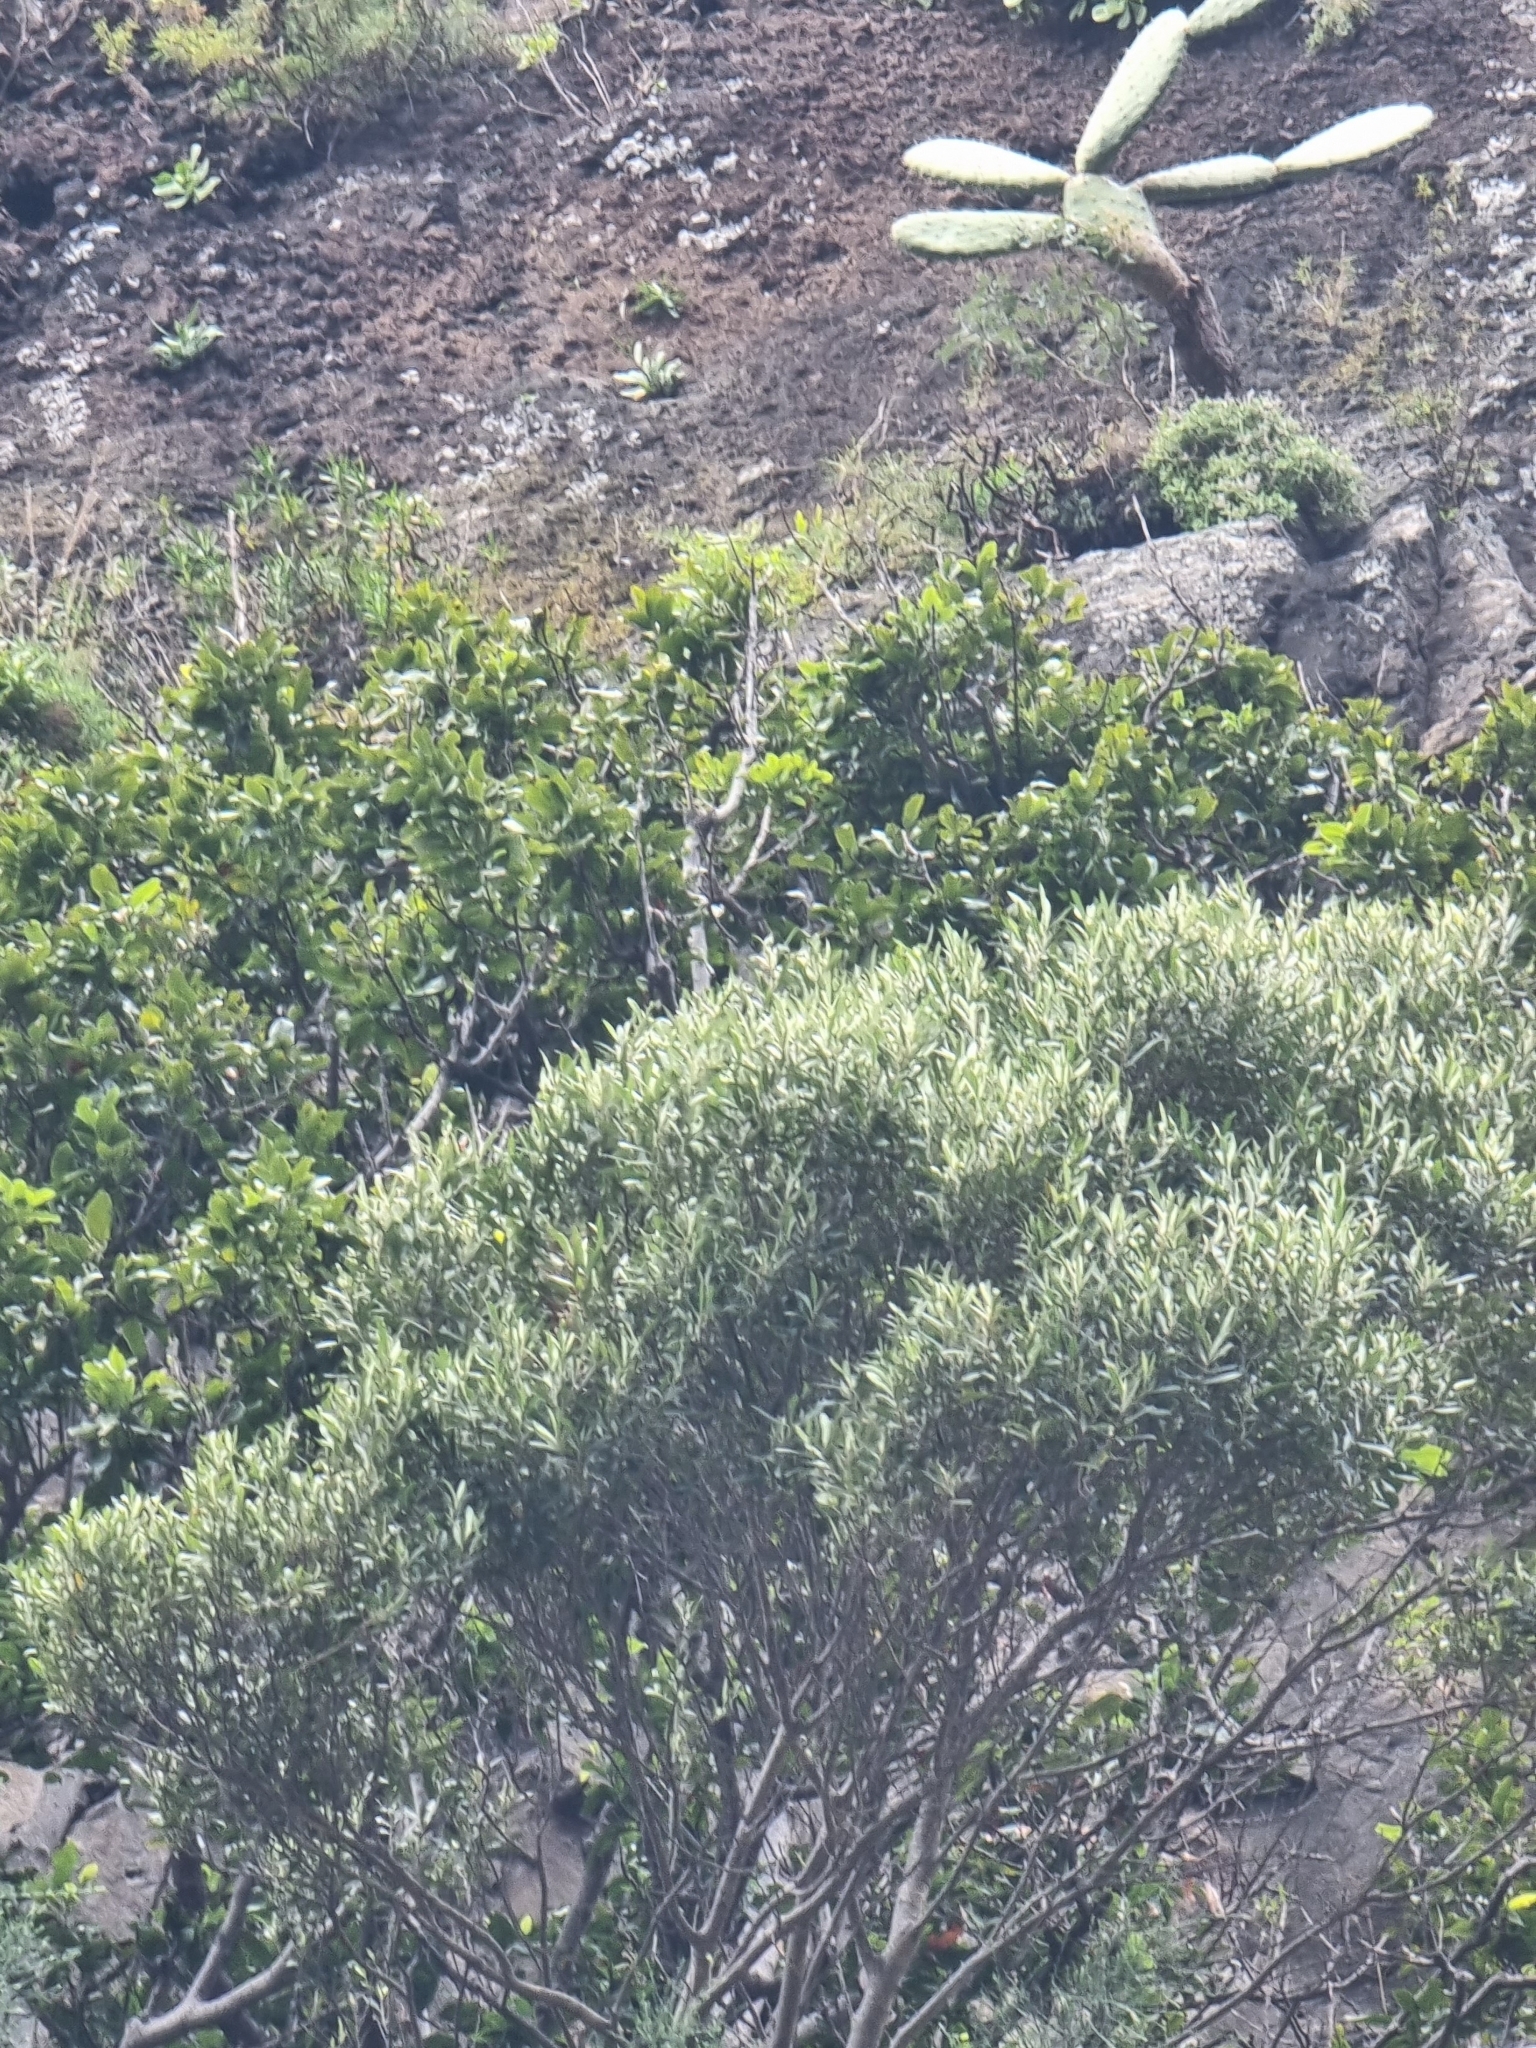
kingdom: Plantae
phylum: Tracheophyta
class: Magnoliopsida
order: Lamiales
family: Oleaceae
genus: Olea
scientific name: Olea europaea
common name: Olive
